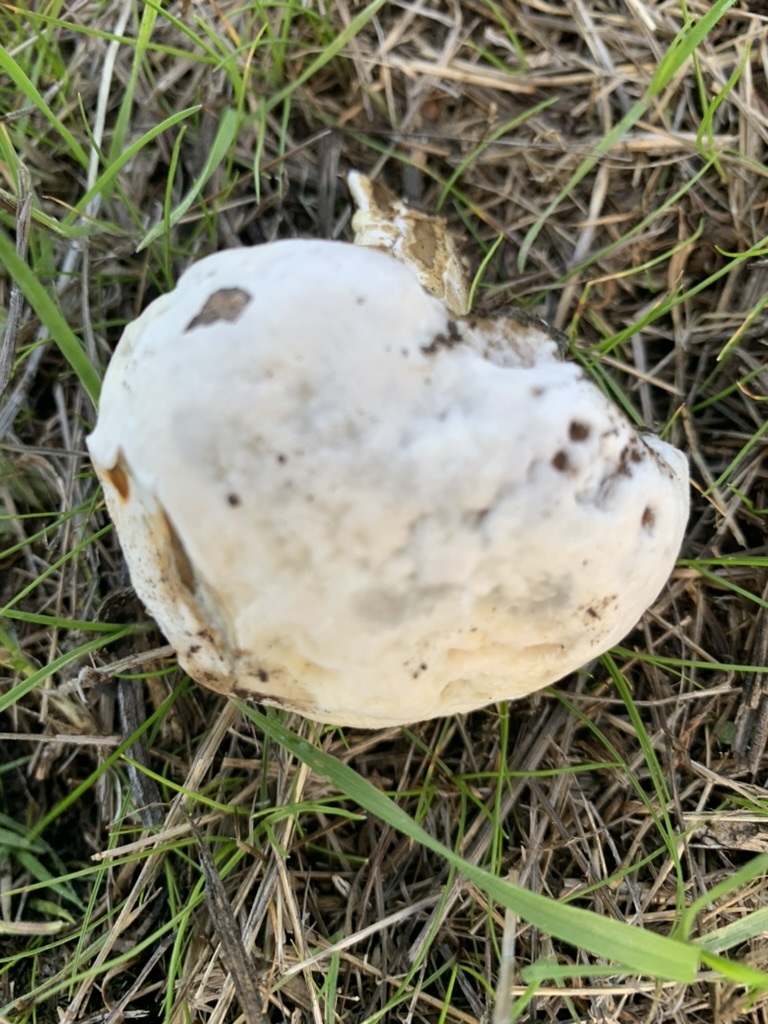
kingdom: Fungi
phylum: Ascomycota
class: Sordariomycetes
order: Hypocreales
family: Hypocreaceae
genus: Hypomyces
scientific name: Hypomyces microspermus
